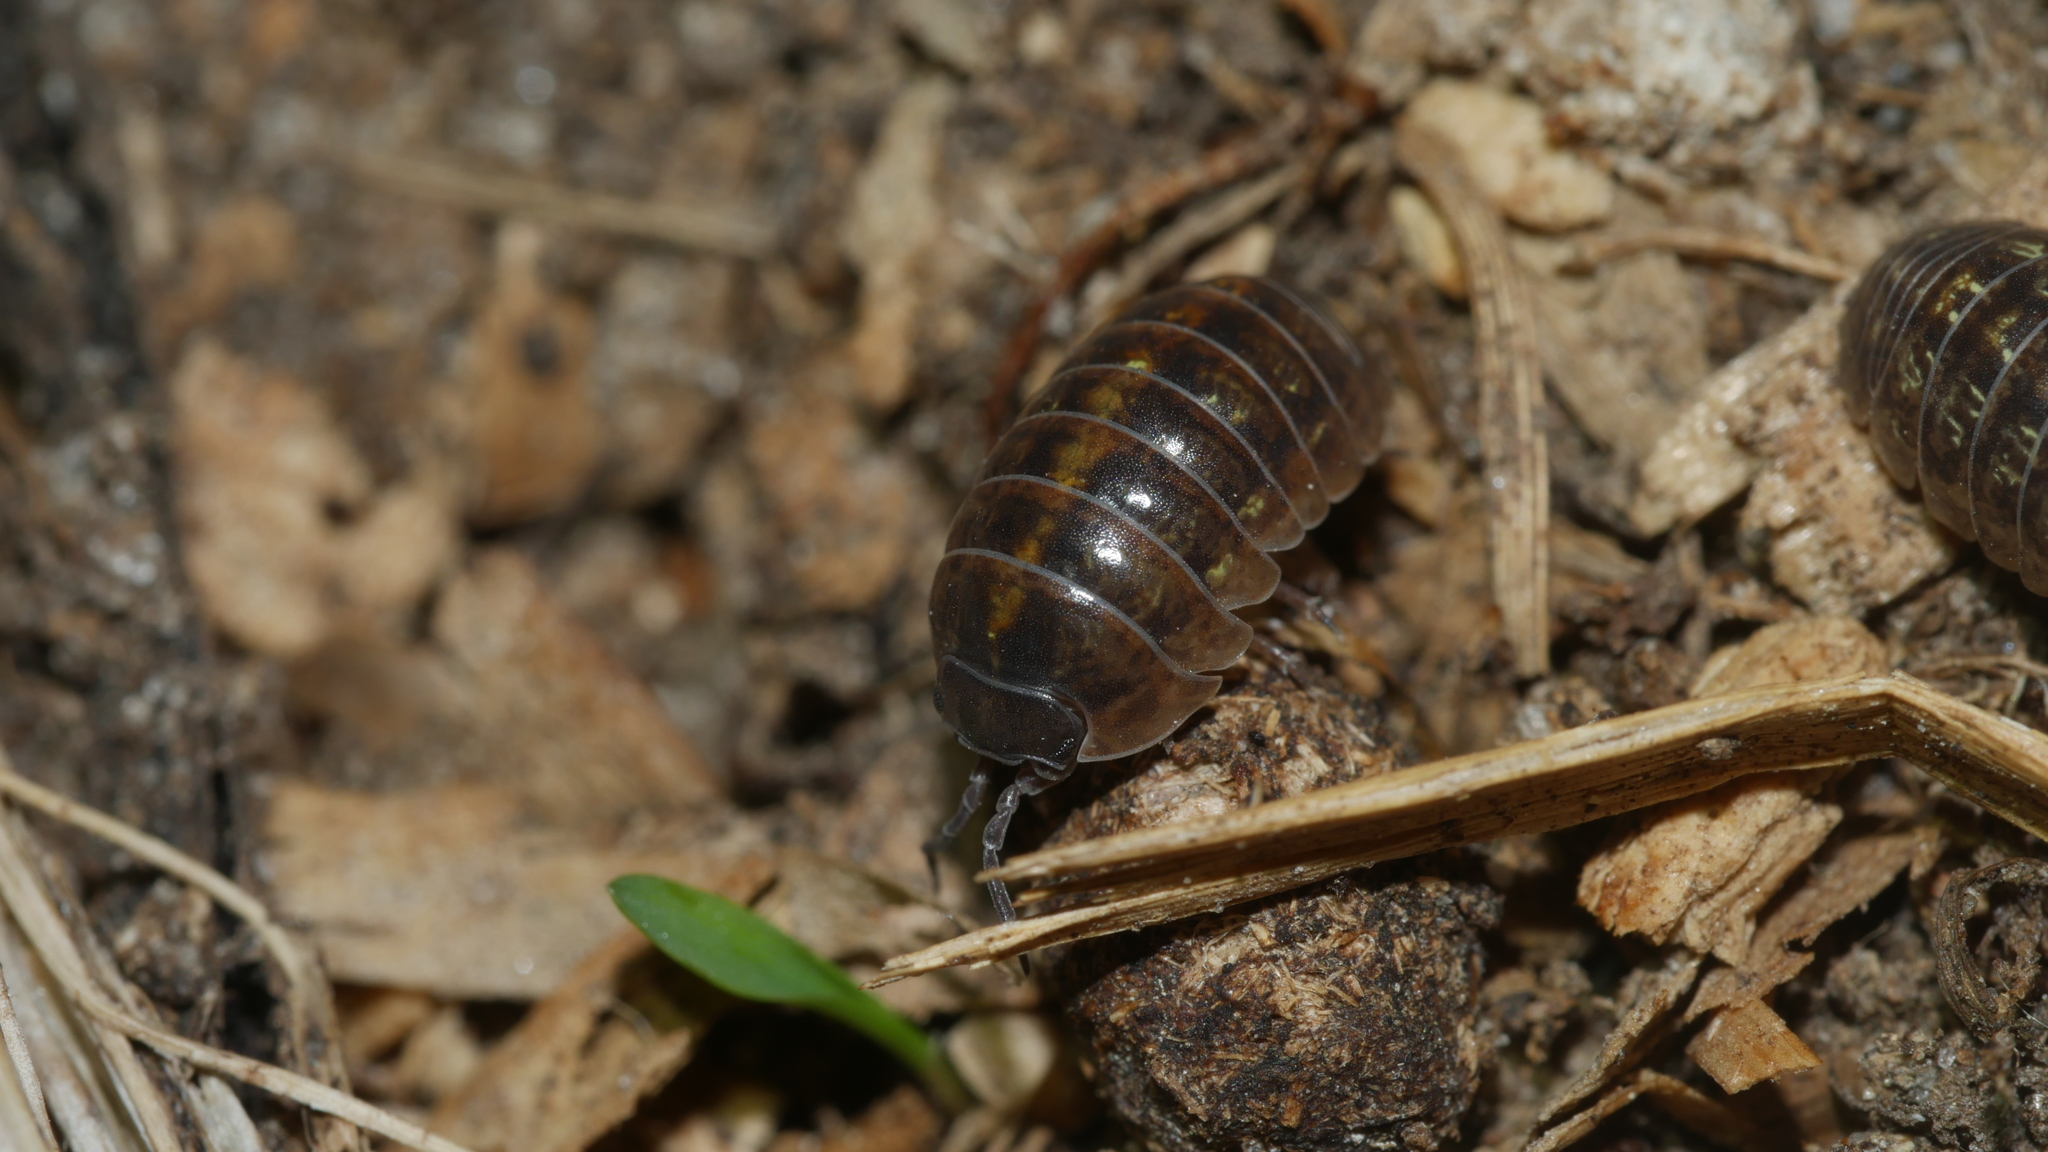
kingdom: Animalia
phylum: Arthropoda
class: Malacostraca
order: Isopoda
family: Armadillidiidae
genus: Armadillidium
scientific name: Armadillidium vulgare
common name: Common pill woodlouse
